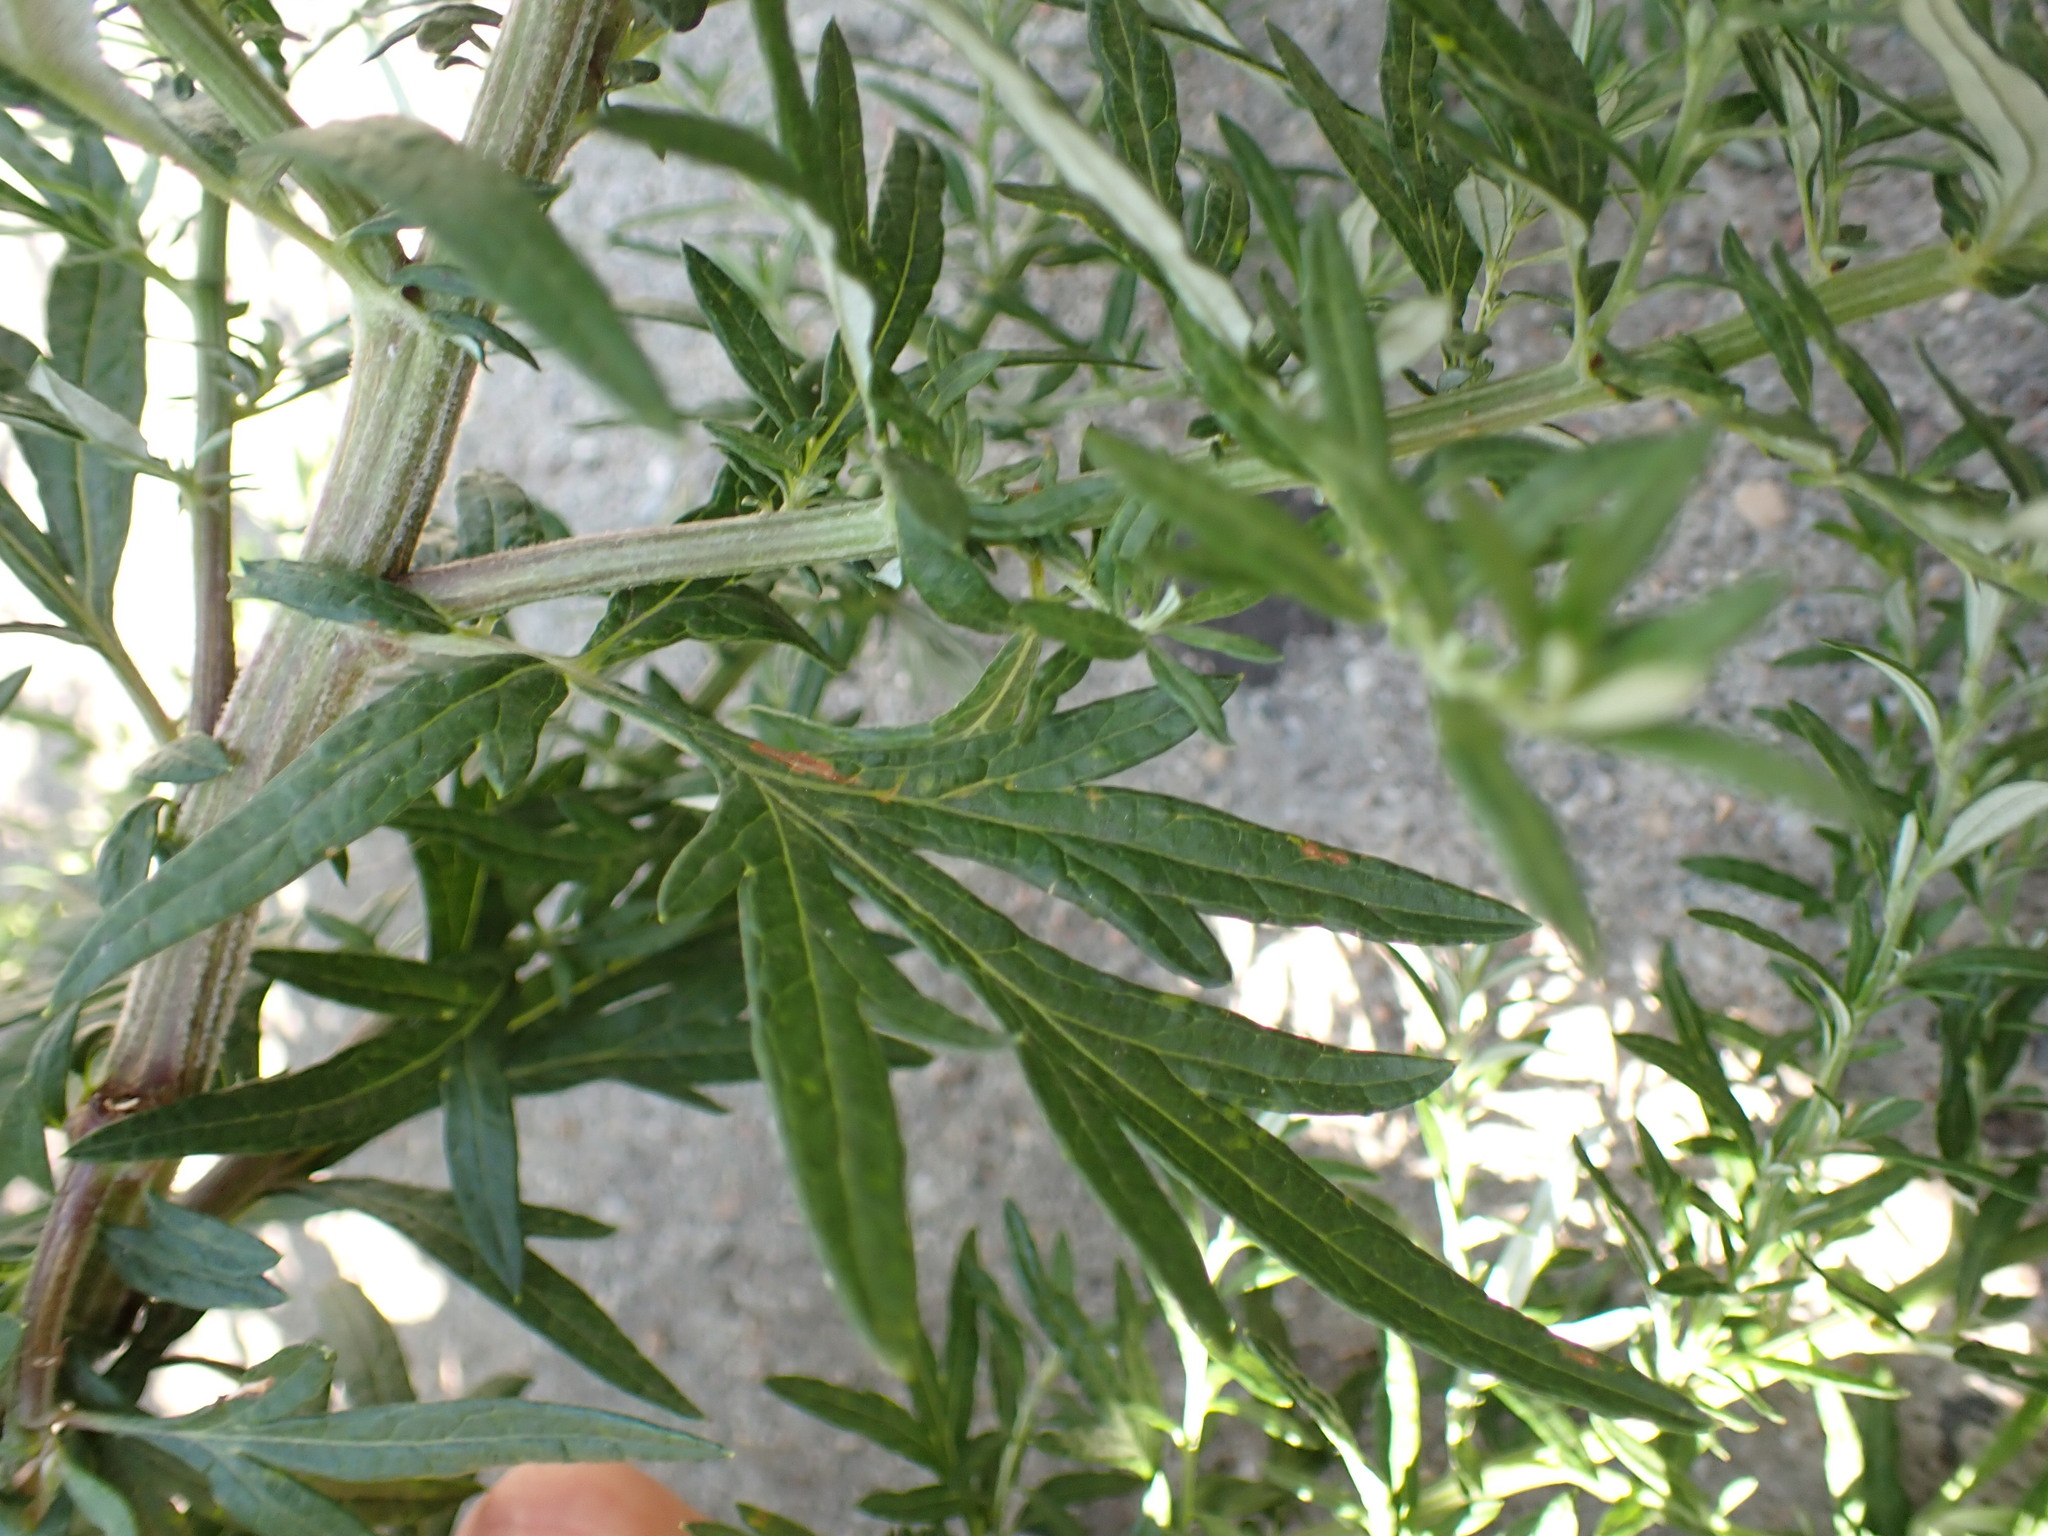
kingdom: Plantae
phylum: Tracheophyta
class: Magnoliopsida
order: Asterales
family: Asteraceae
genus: Artemisia
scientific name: Artemisia vulgaris
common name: Mugwort
